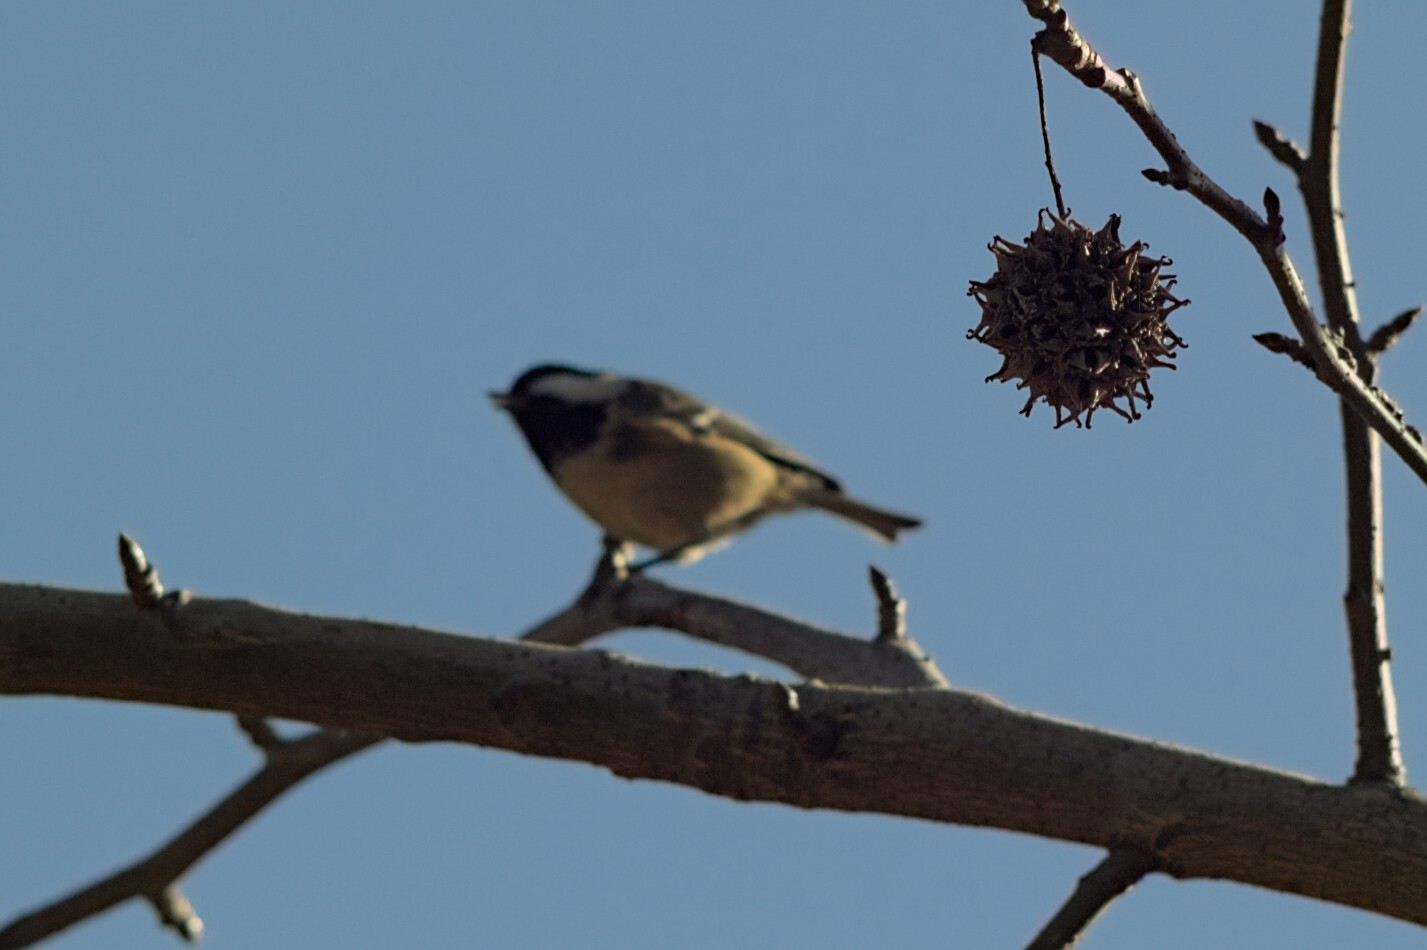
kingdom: Animalia
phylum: Chordata
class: Aves
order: Passeriformes
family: Paridae
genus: Periparus
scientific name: Periparus ater
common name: Coal tit
